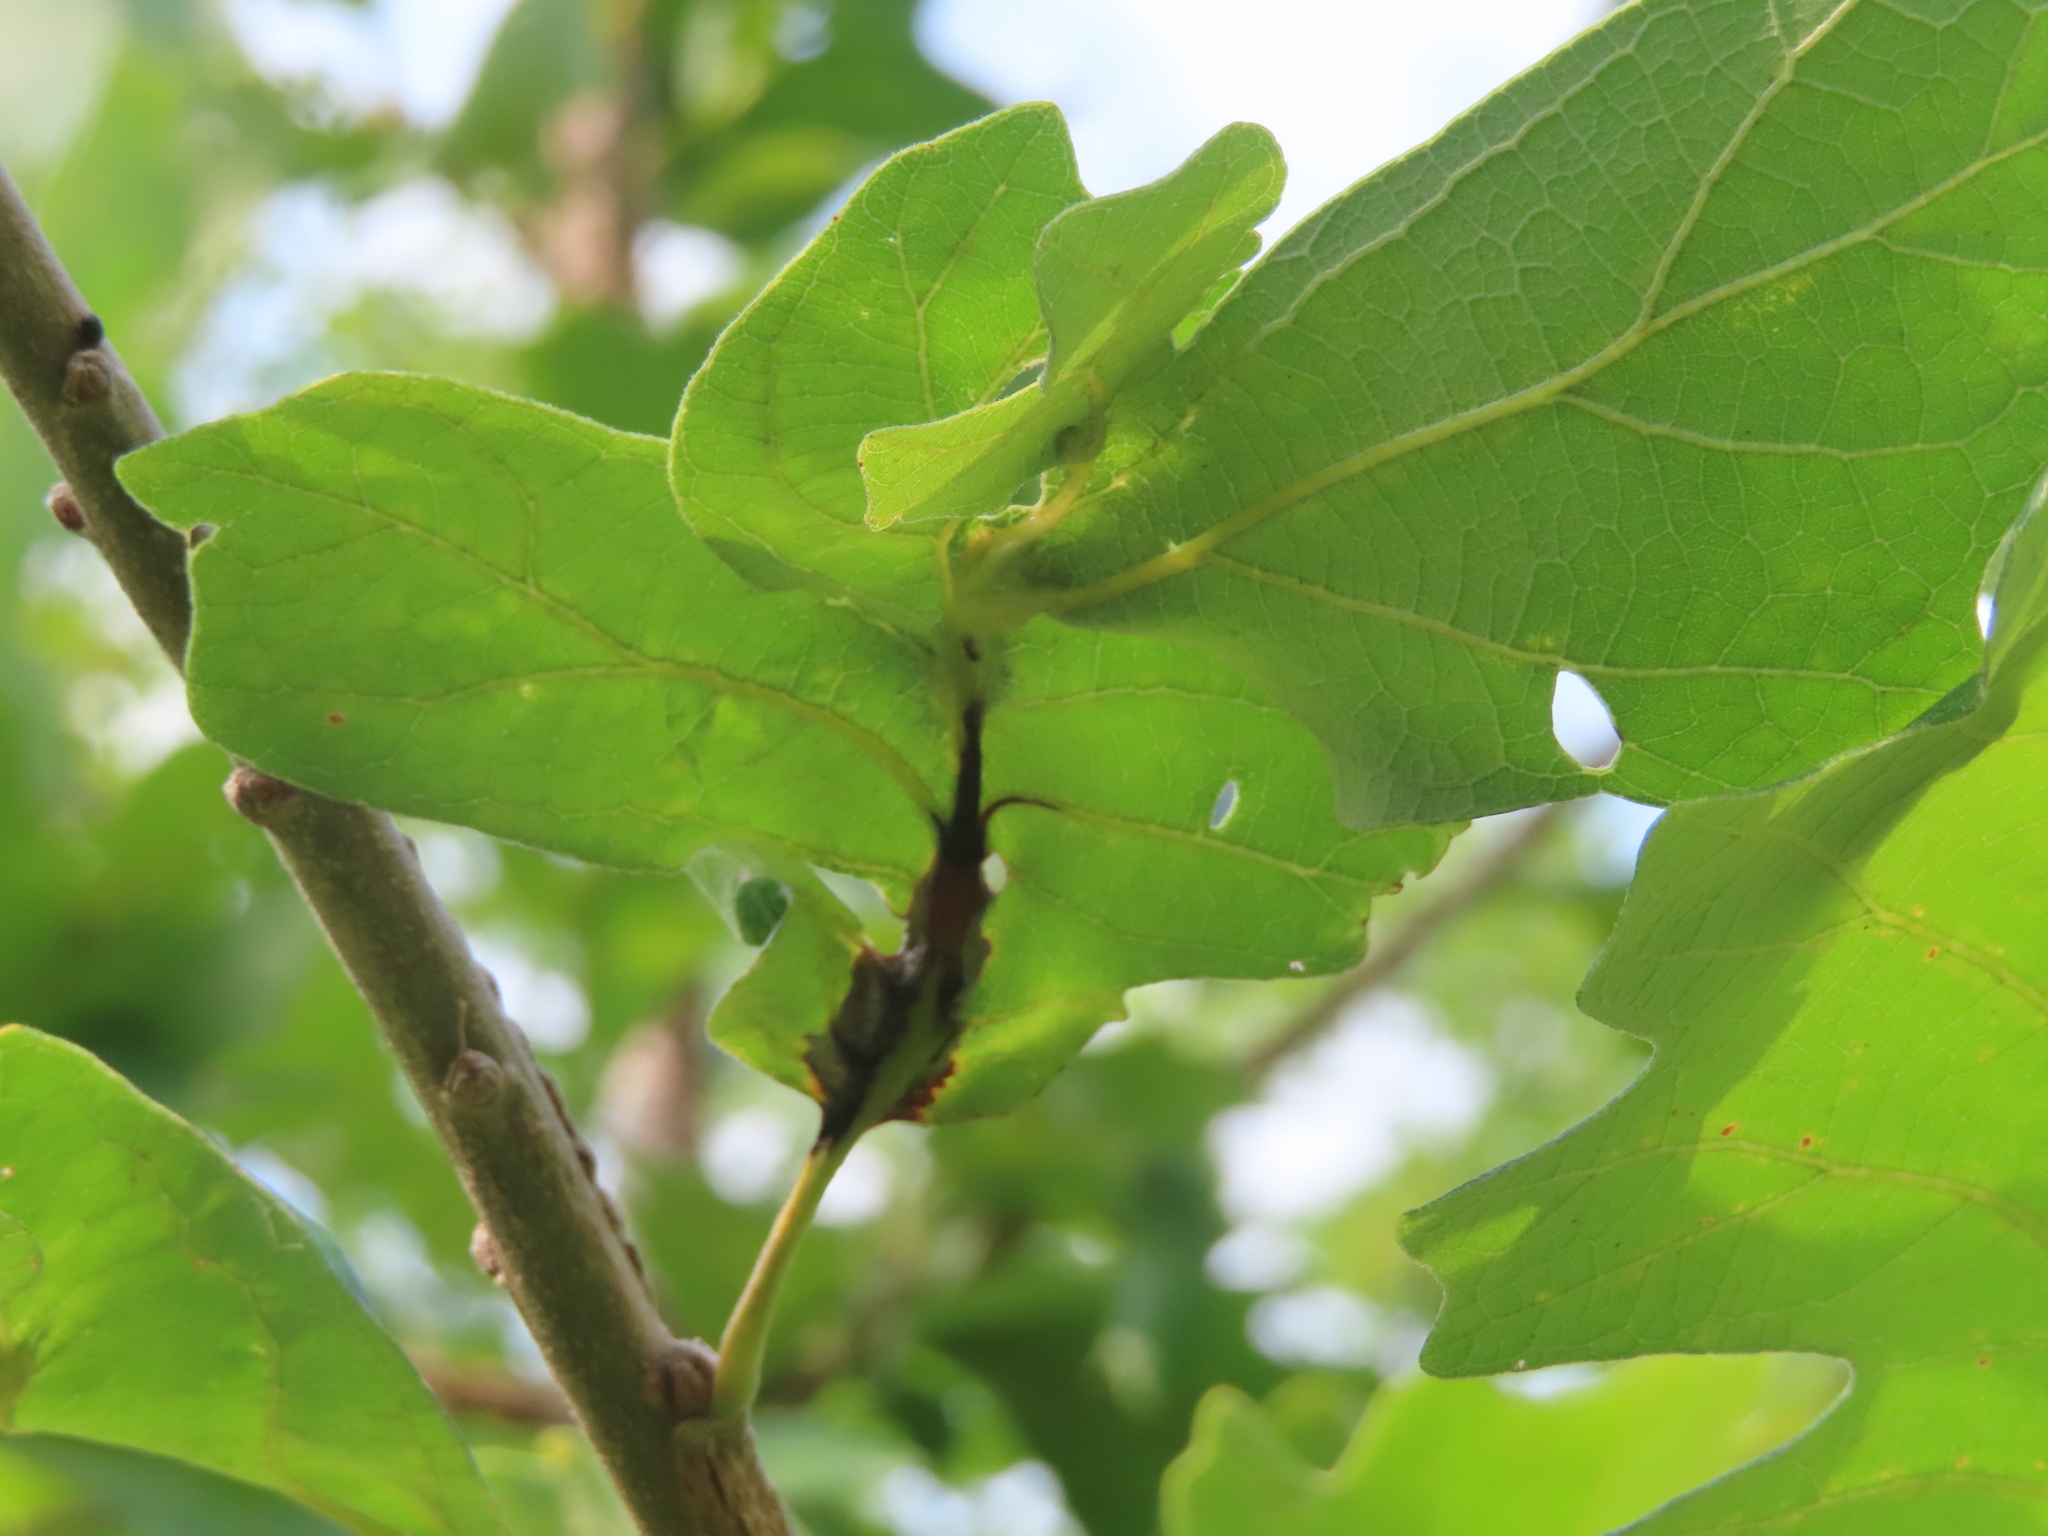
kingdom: Animalia
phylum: Arthropoda
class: Insecta
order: Hymenoptera
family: Cynipidae
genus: Bassettia
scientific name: Bassettia flavipes
